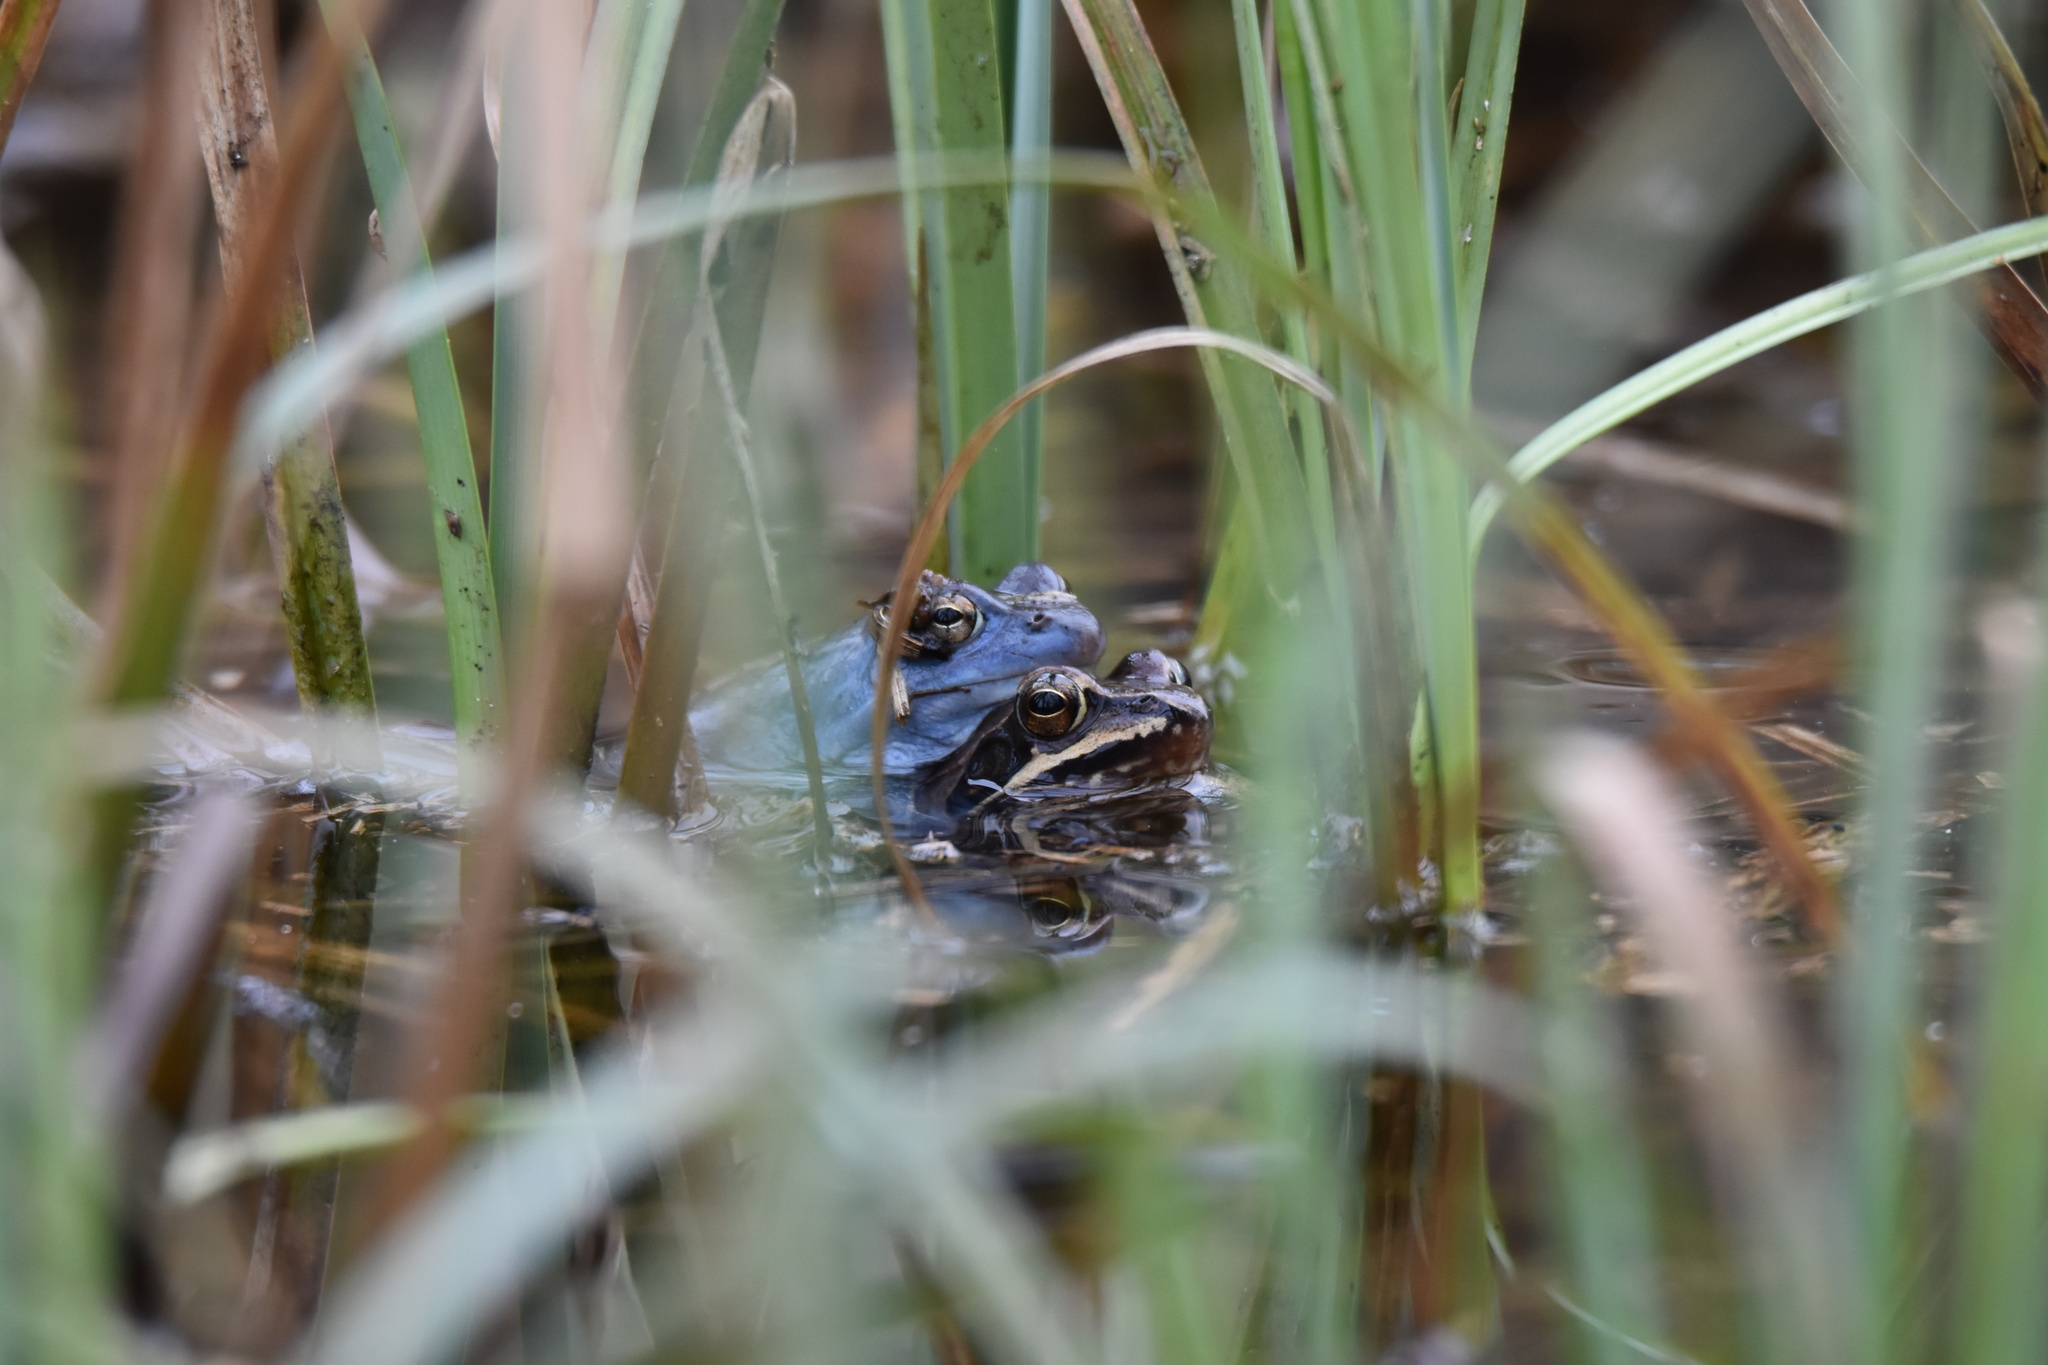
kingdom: Animalia
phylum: Chordata
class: Amphibia
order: Anura
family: Ranidae
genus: Rana
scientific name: Rana arvalis
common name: Moor frog
